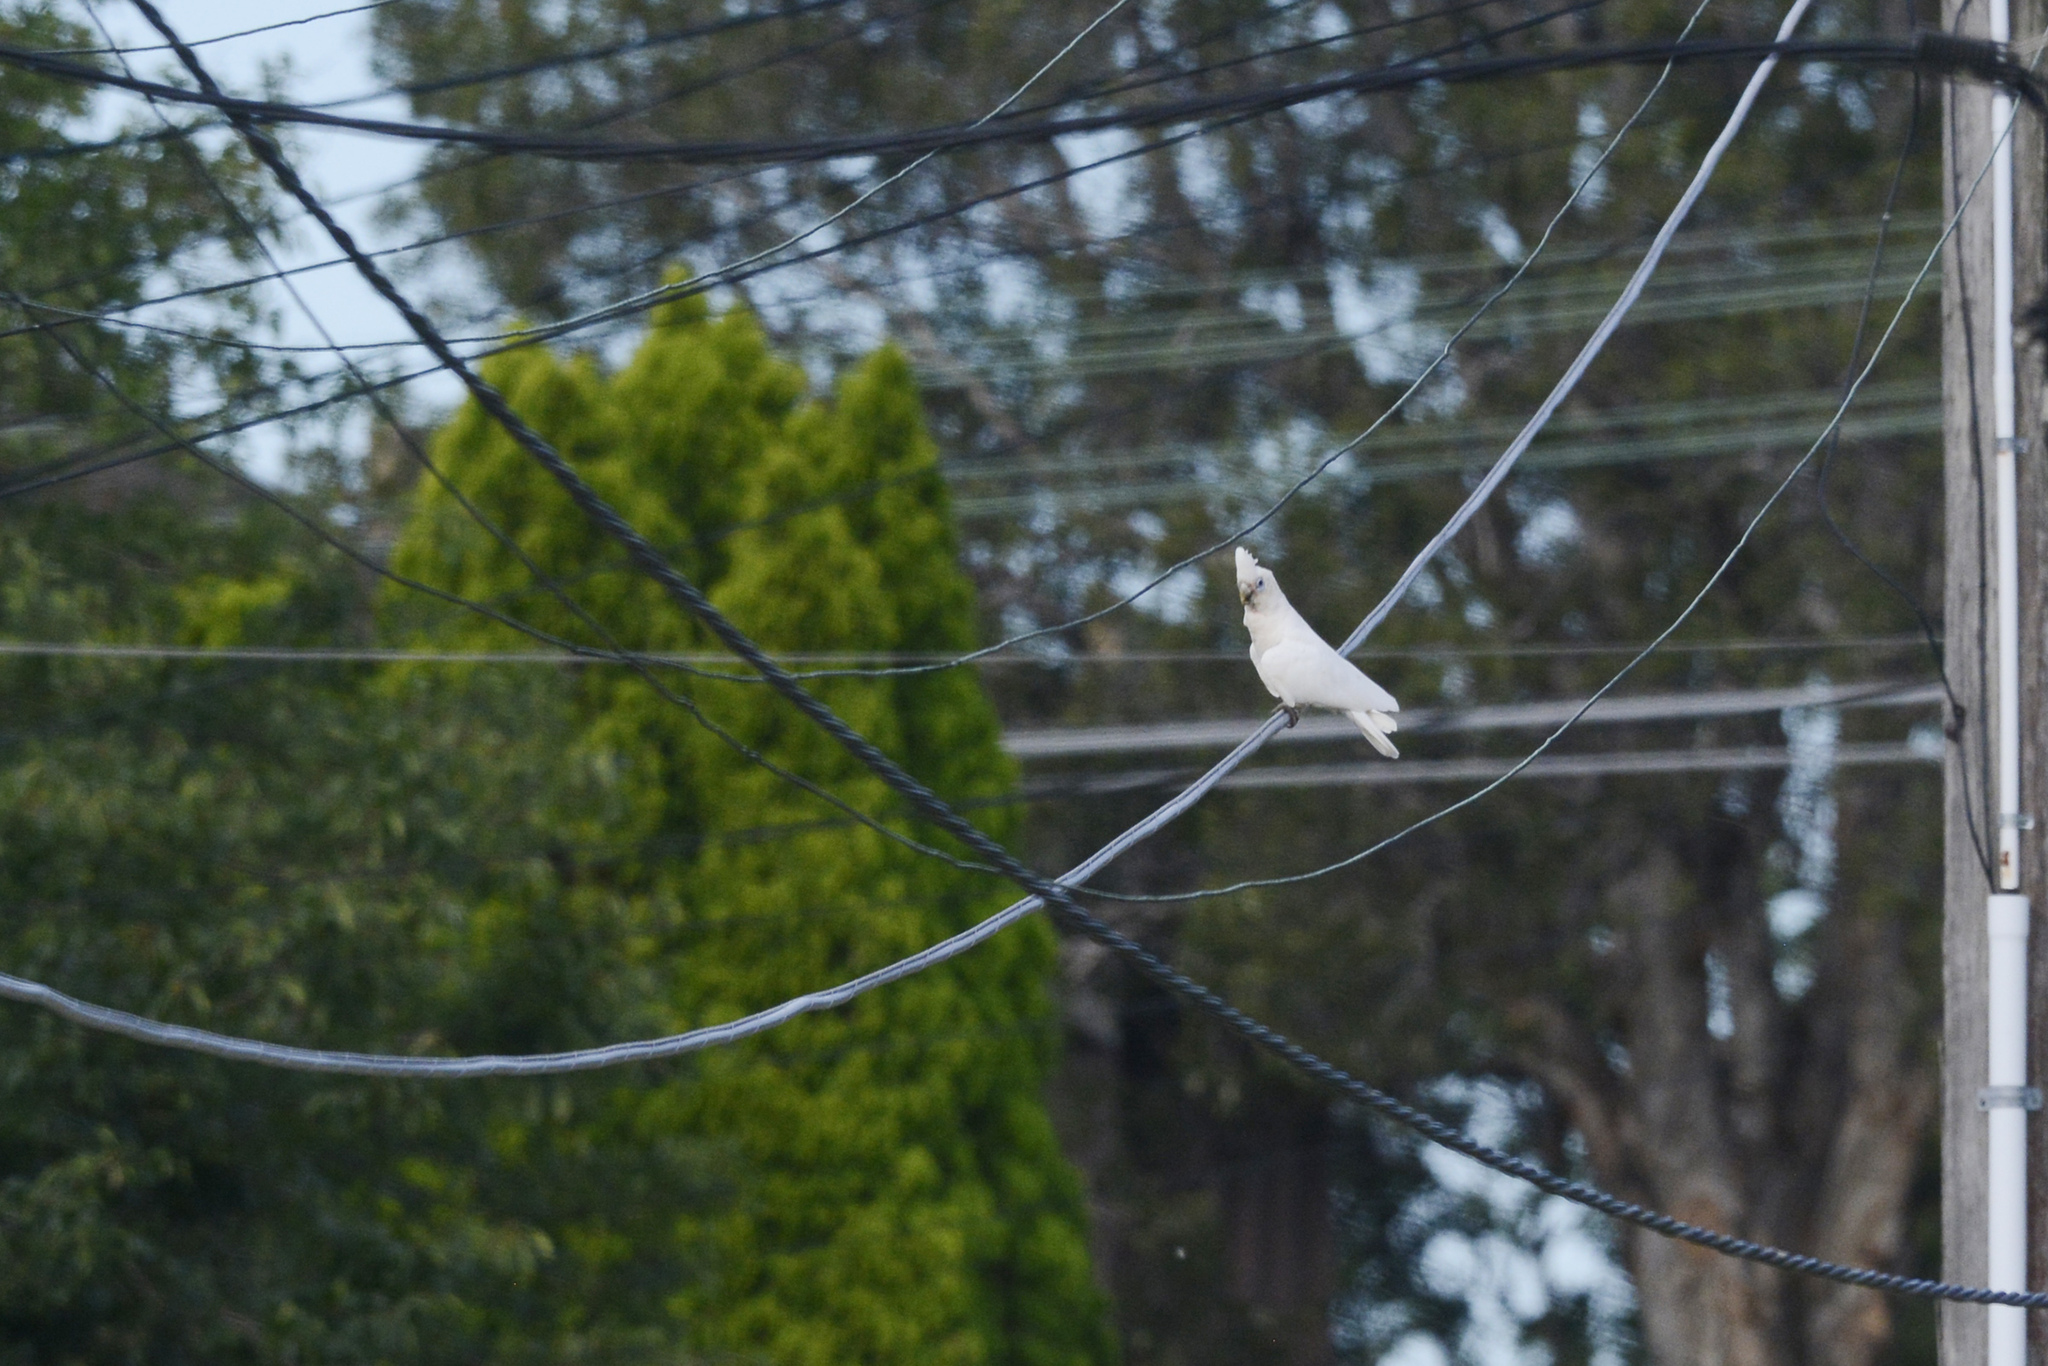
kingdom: Animalia
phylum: Chordata
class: Aves
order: Psittaciformes
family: Psittacidae
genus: Cacatua
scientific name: Cacatua sanguinea
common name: Little corella
